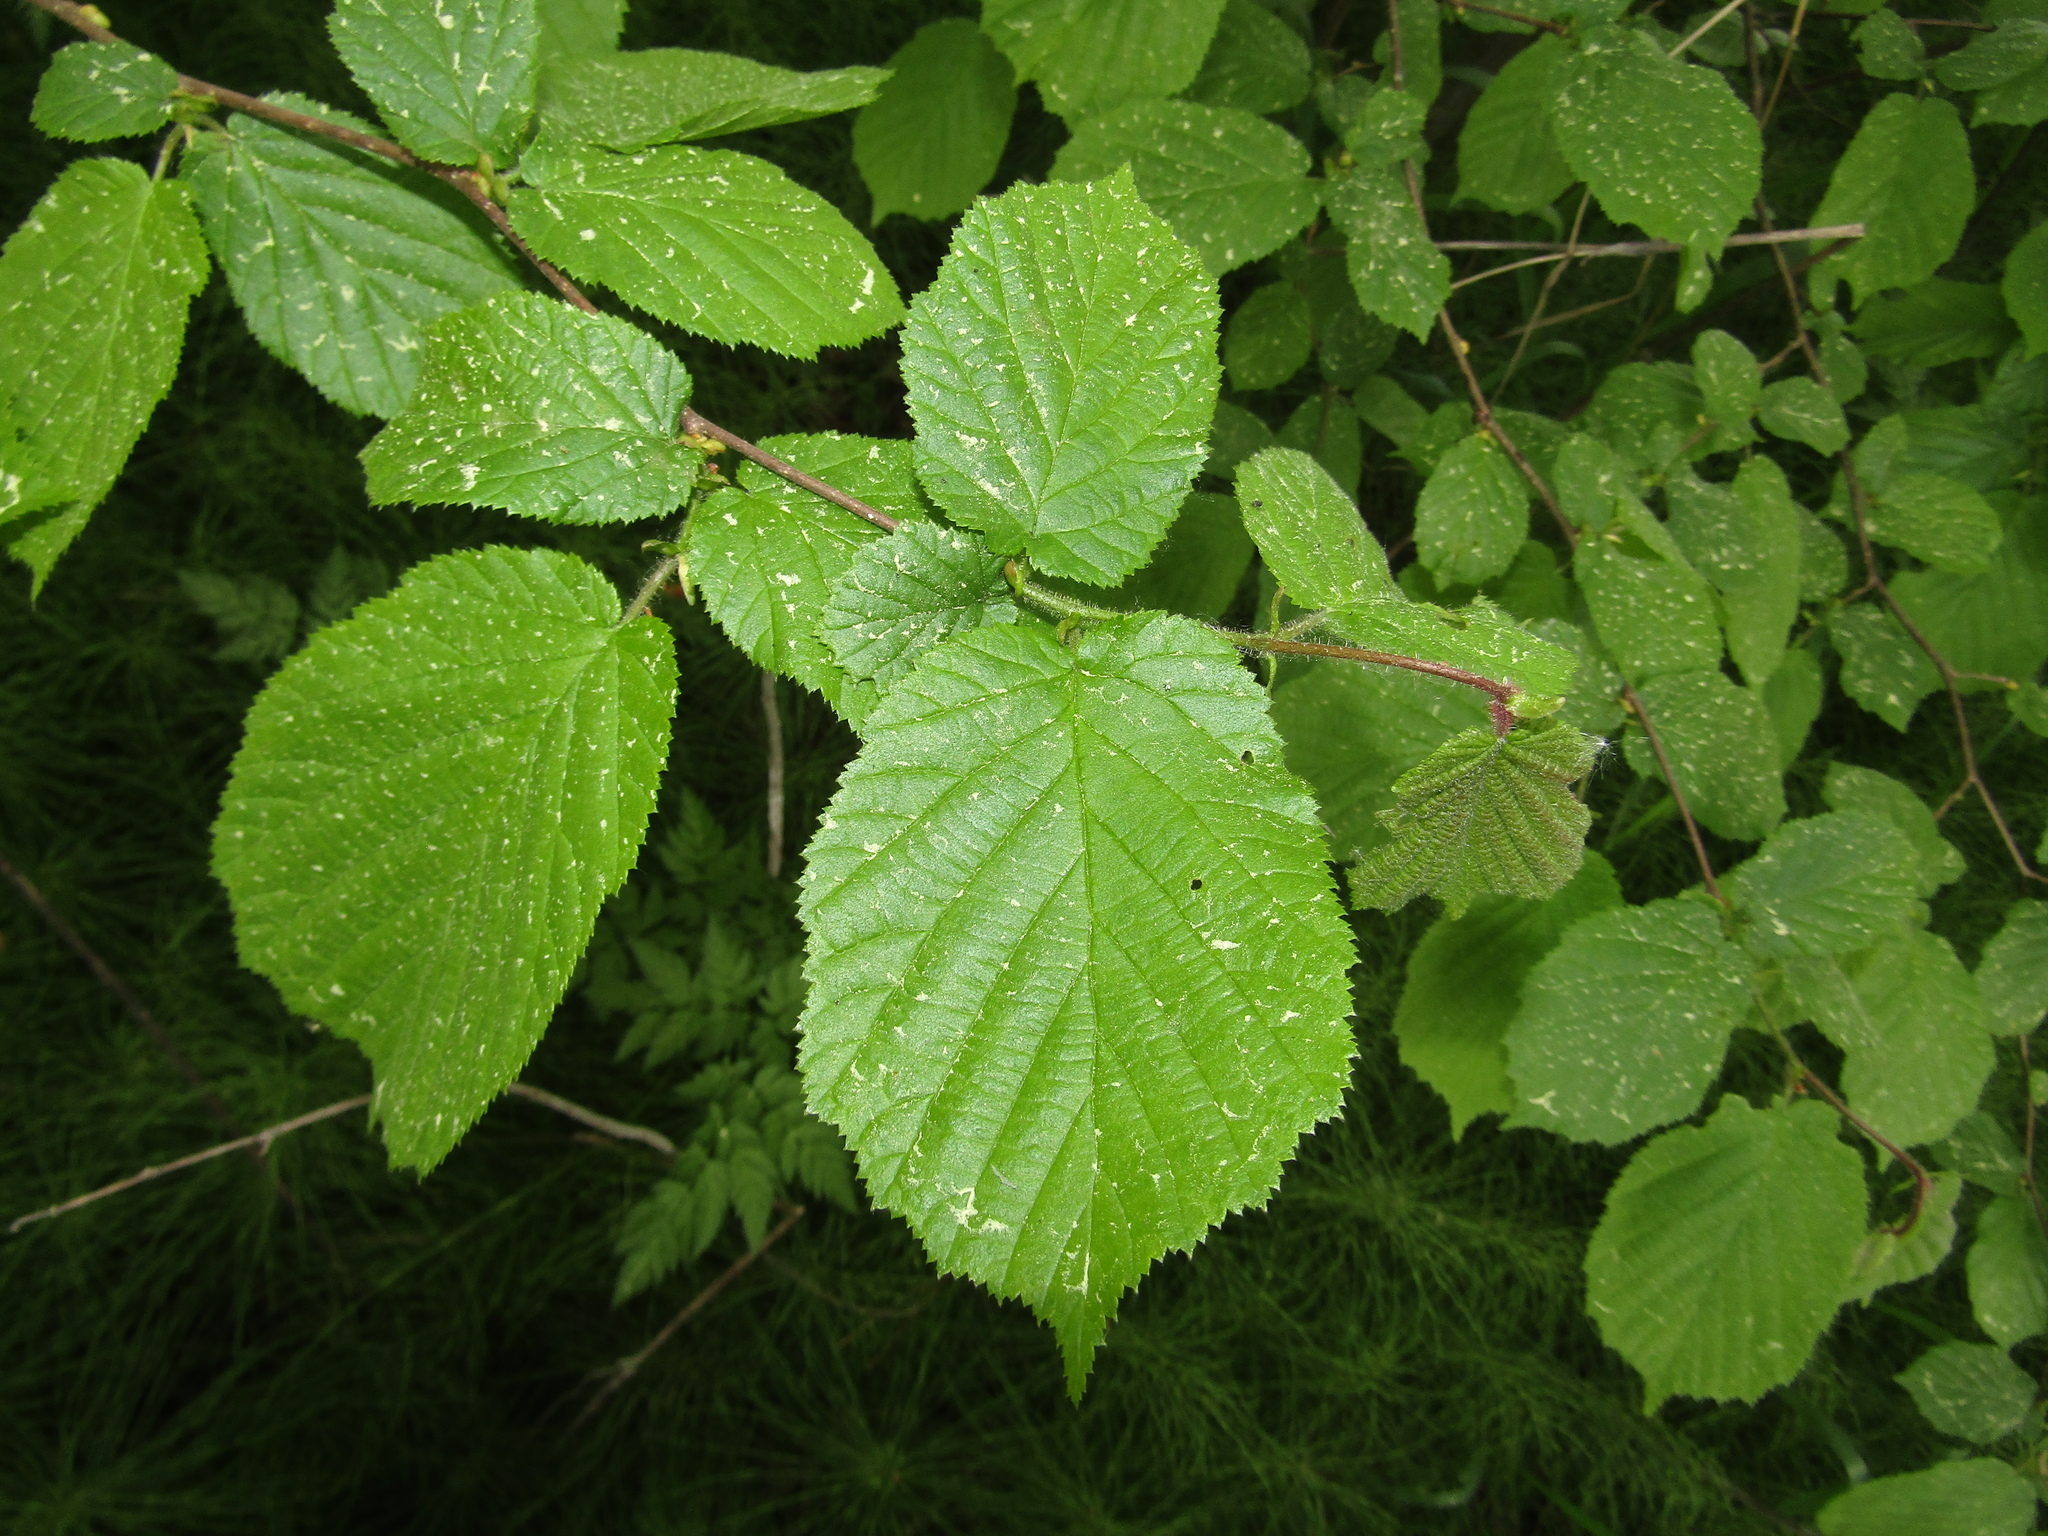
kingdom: Plantae
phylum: Tracheophyta
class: Magnoliopsida
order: Fagales
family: Betulaceae
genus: Corylus
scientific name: Corylus avellana
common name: European hazel
